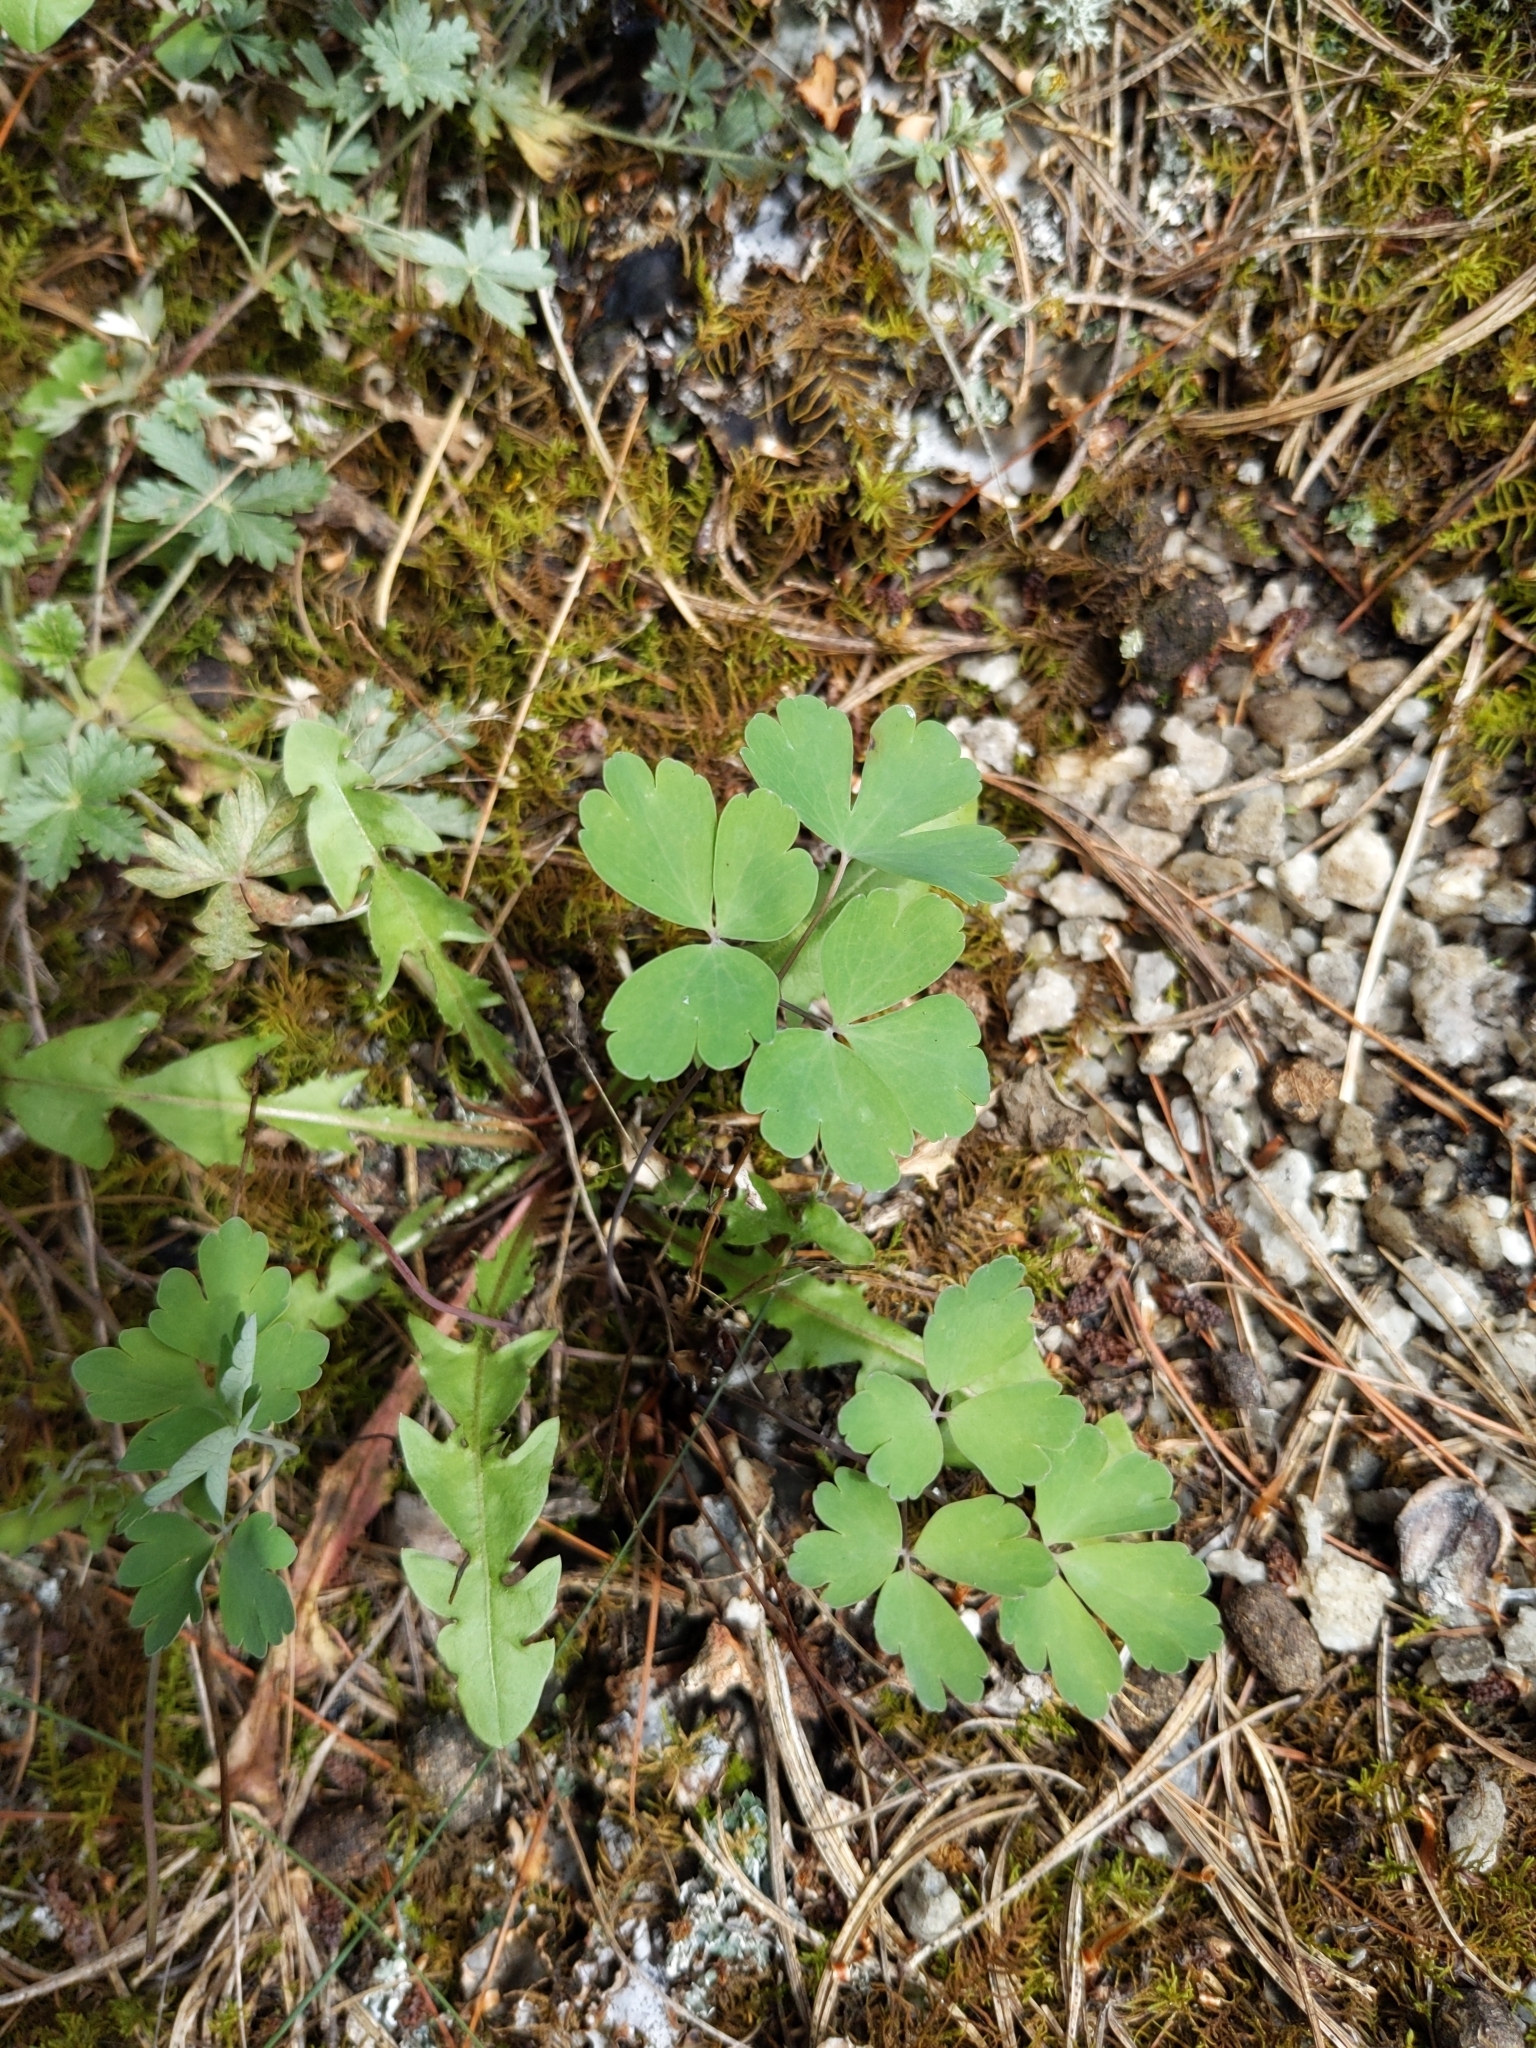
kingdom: Plantae
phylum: Tracheophyta
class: Magnoliopsida
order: Ranunculales
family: Ranunculaceae
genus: Aquilegia
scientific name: Aquilegia canadensis
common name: American columbine
